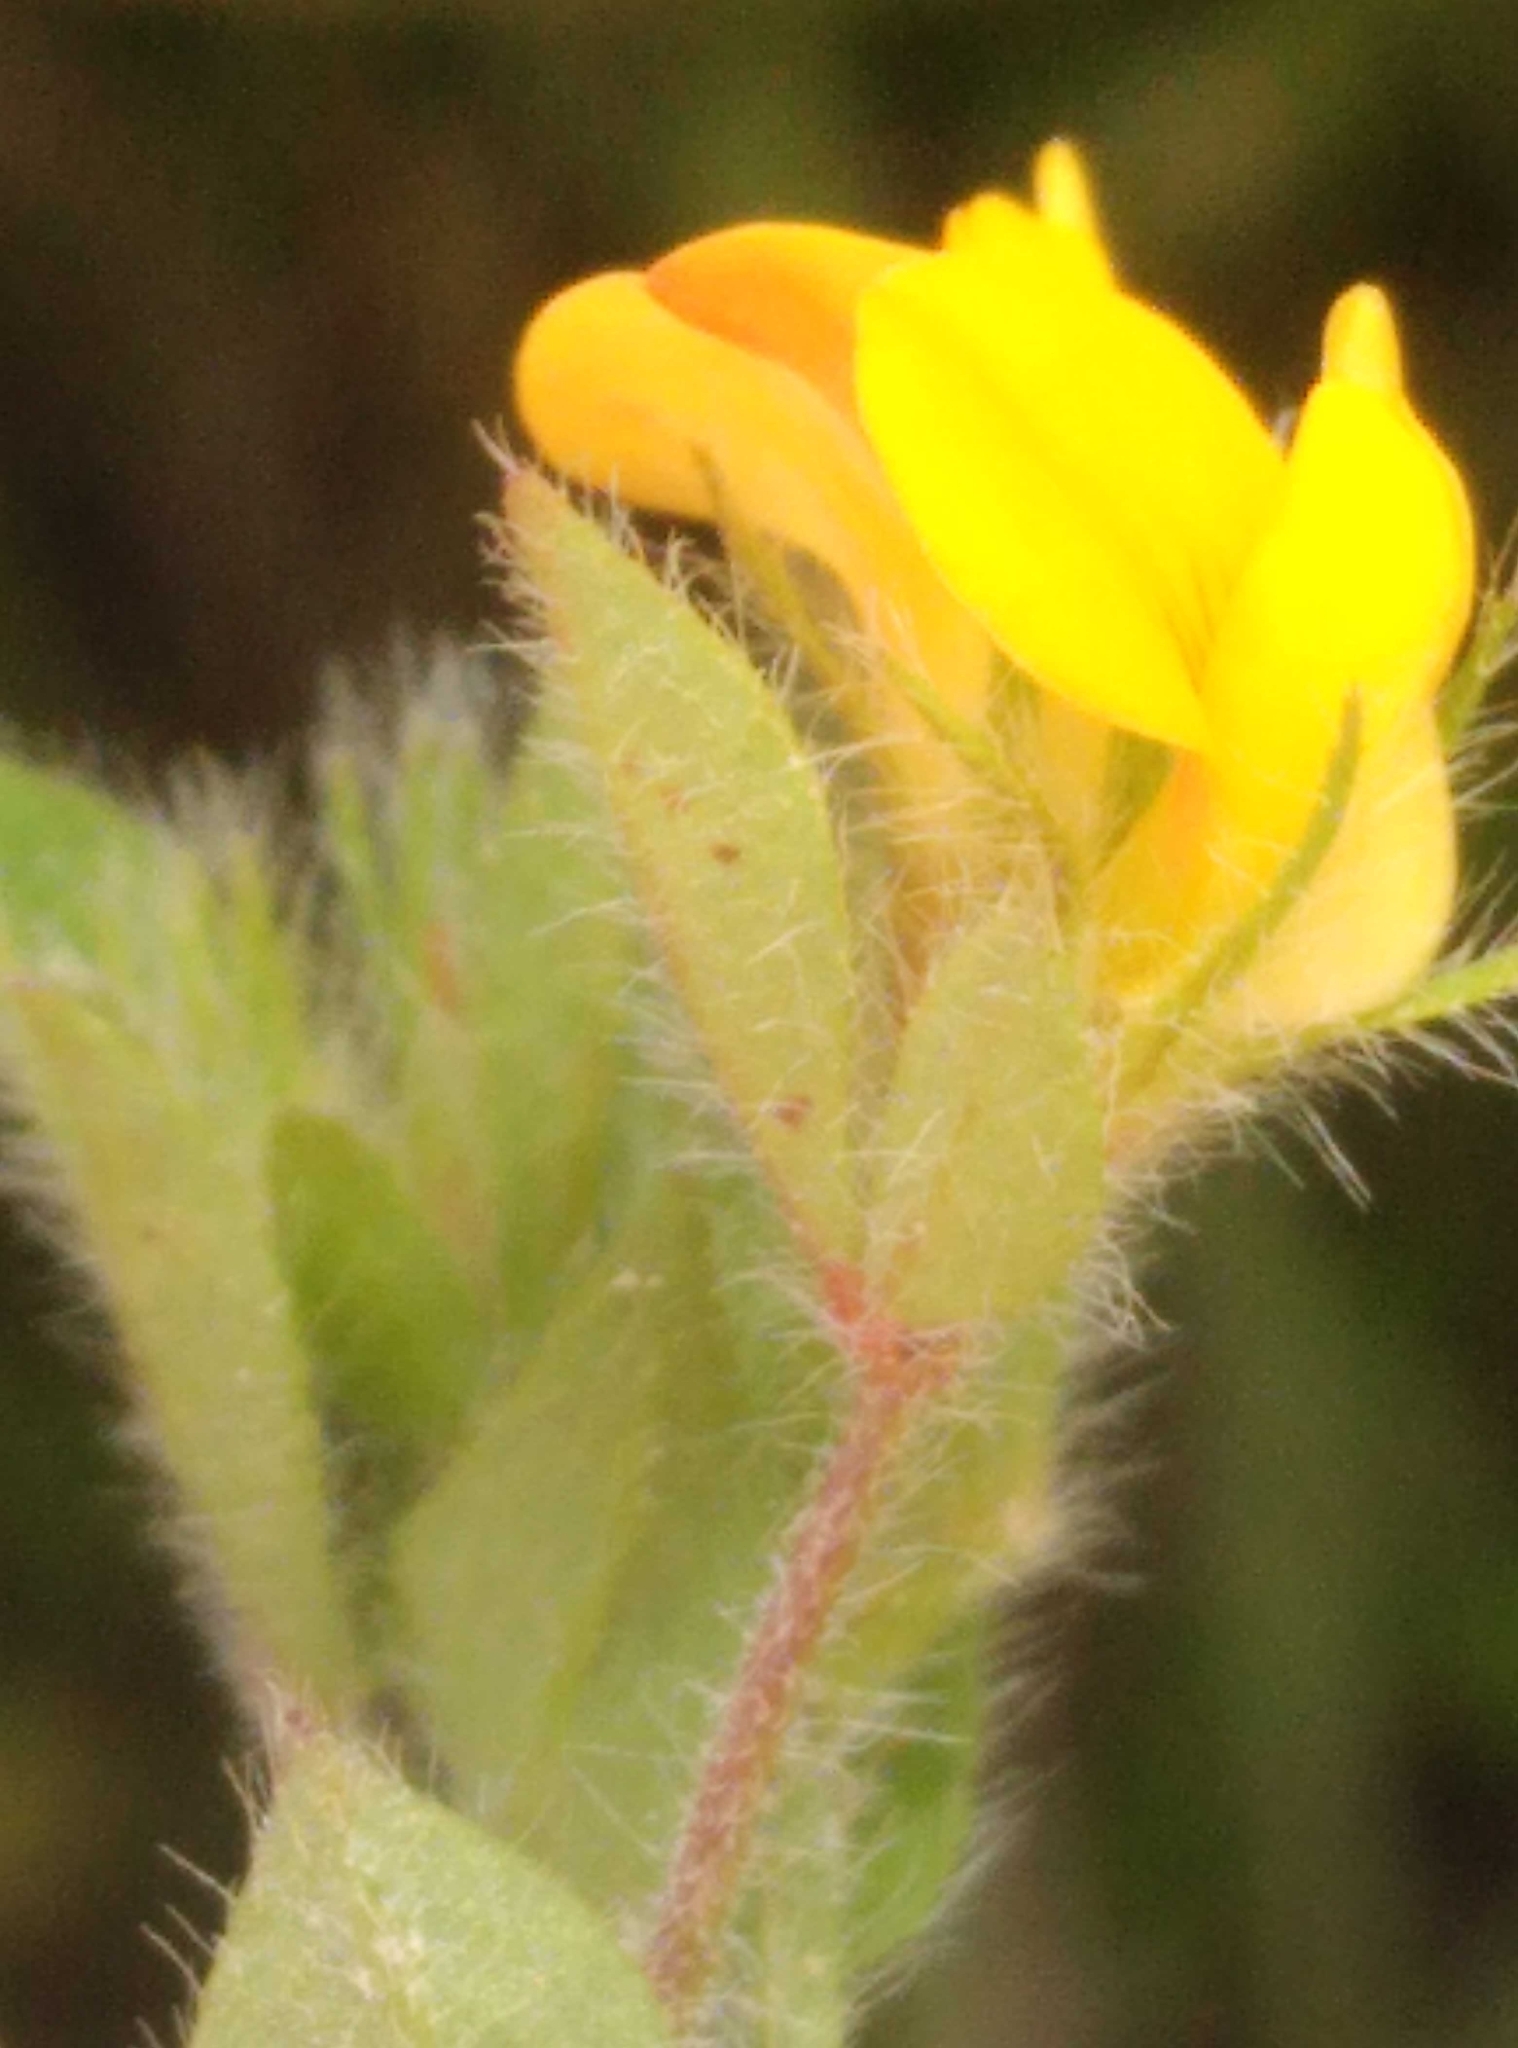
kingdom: Plantae
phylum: Tracheophyta
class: Magnoliopsida
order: Fabales
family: Fabaceae
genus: Lotus
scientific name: Lotus subbiflorus
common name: Hairy bird's-foot trefoil
